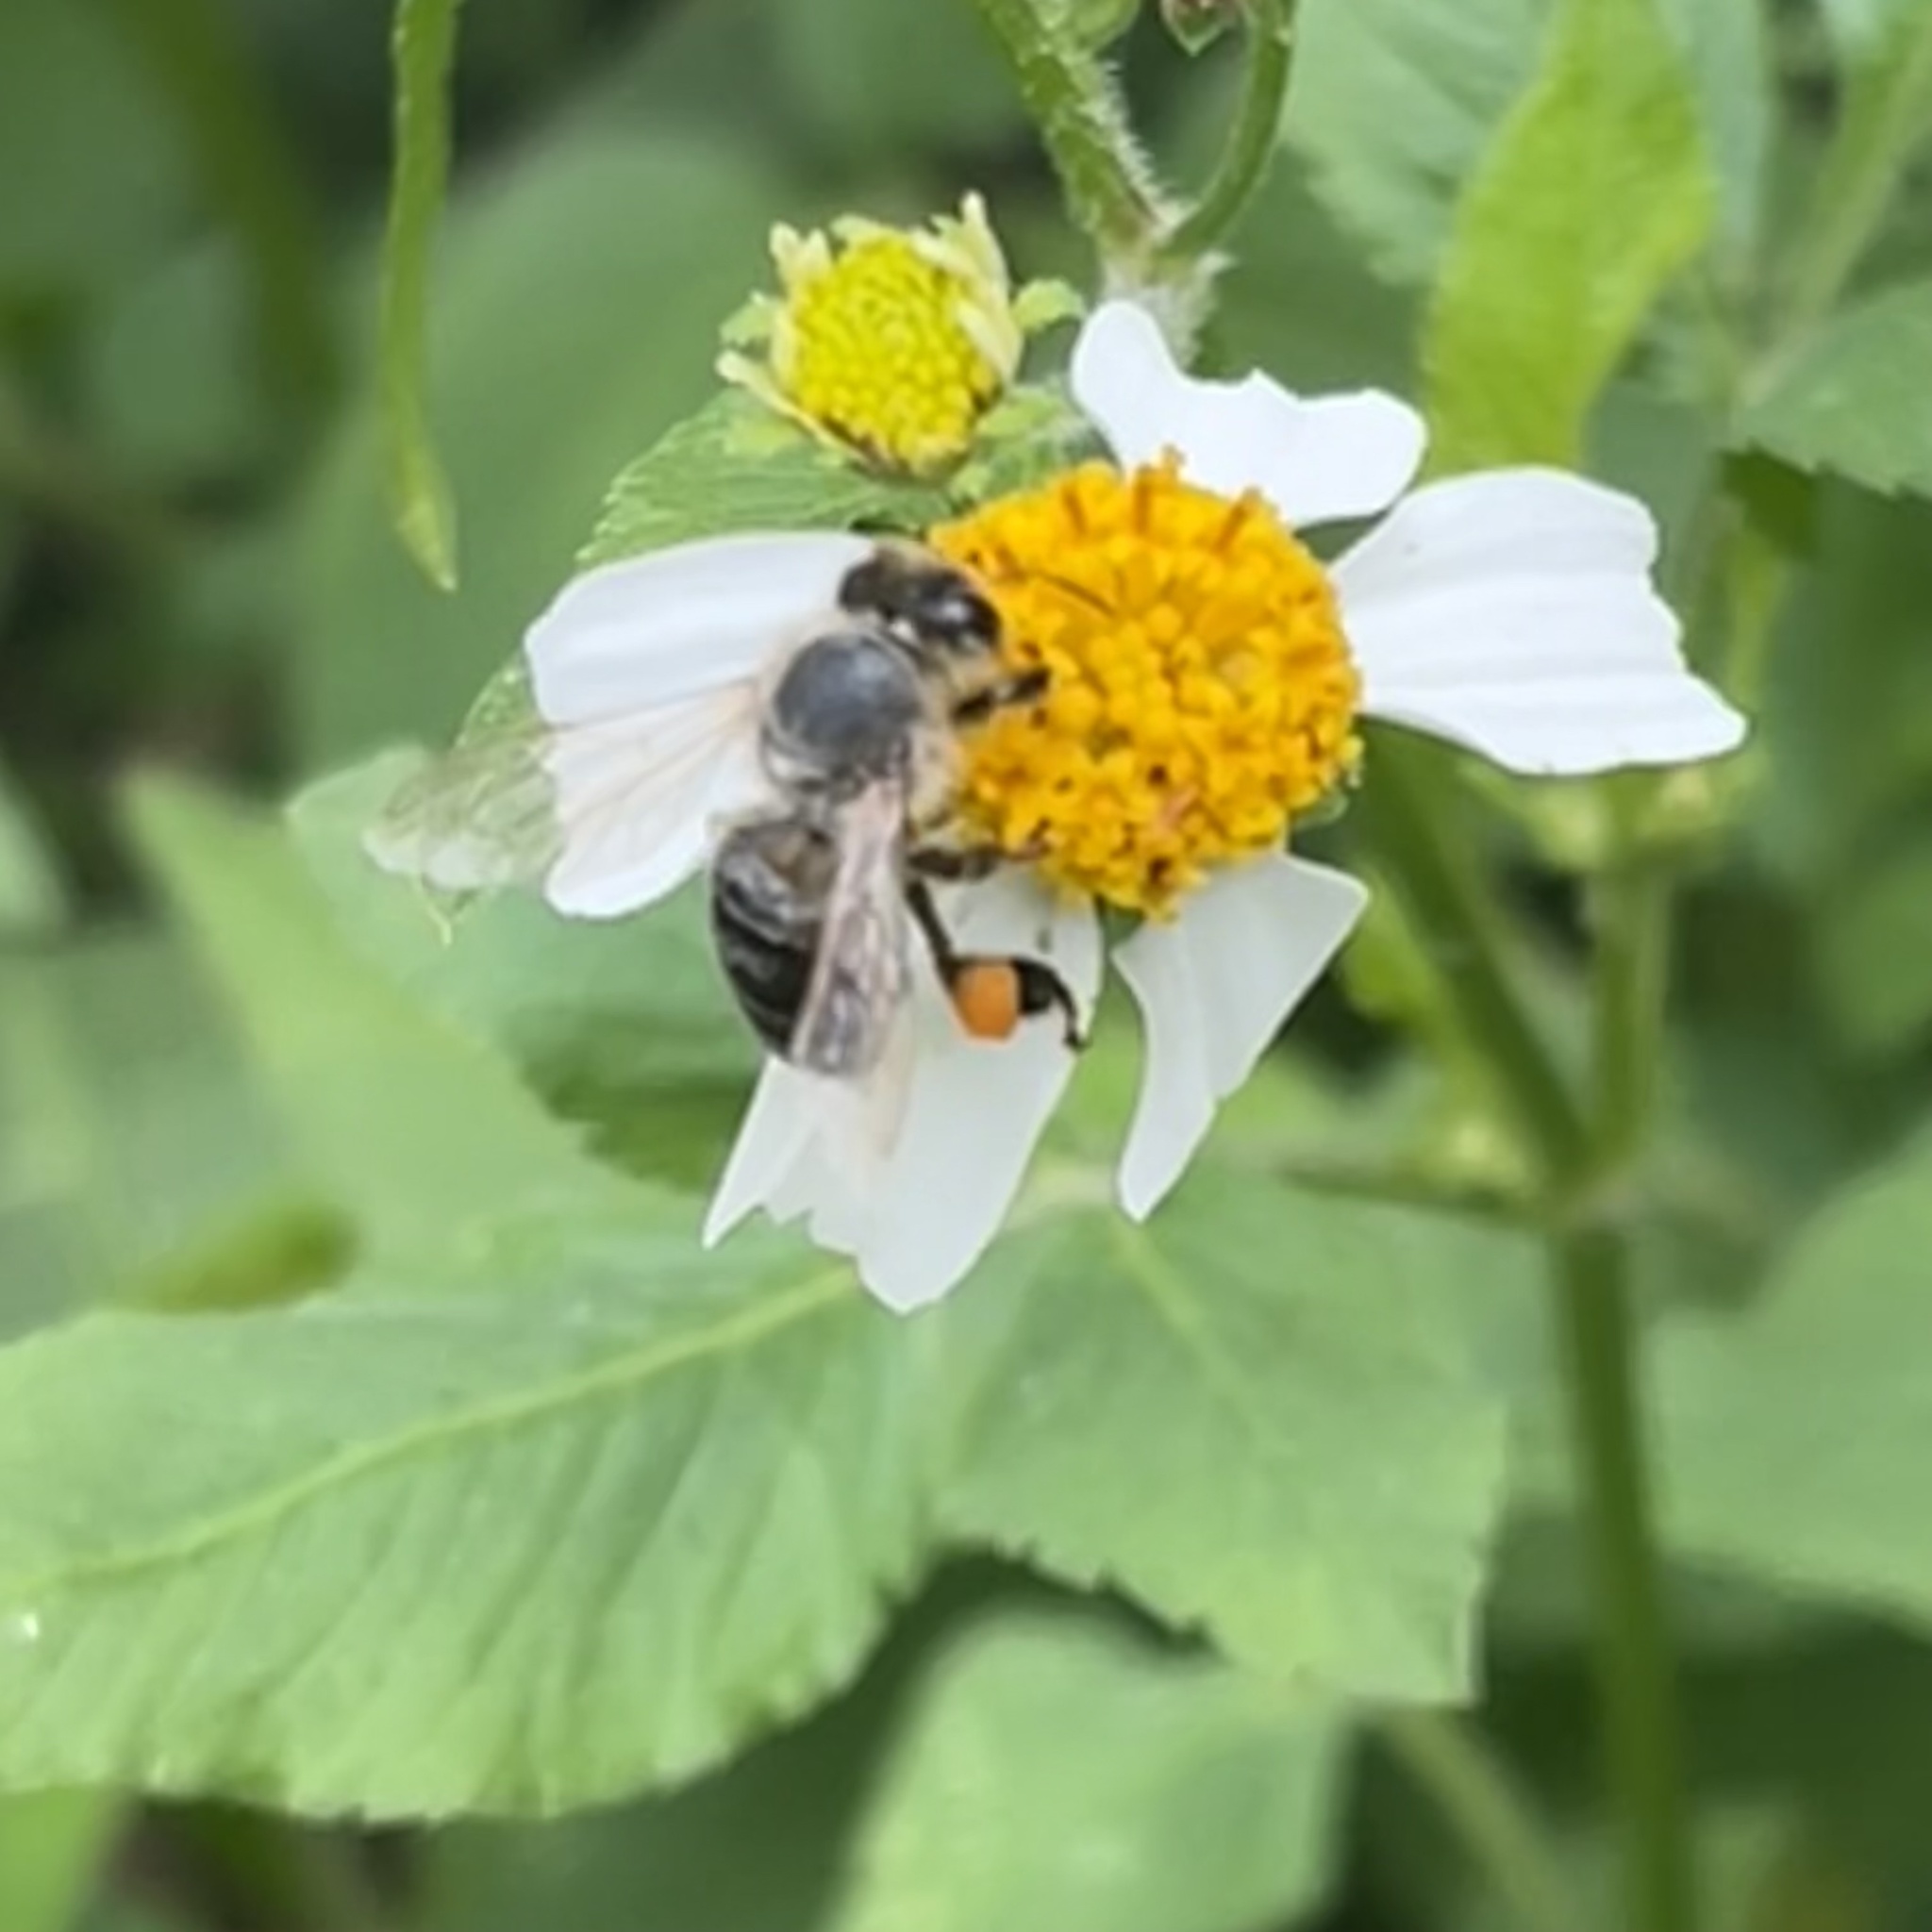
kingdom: Animalia
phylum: Arthropoda
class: Insecta
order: Hymenoptera
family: Apidae
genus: Apis
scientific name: Apis mellifera
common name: Honey bee
